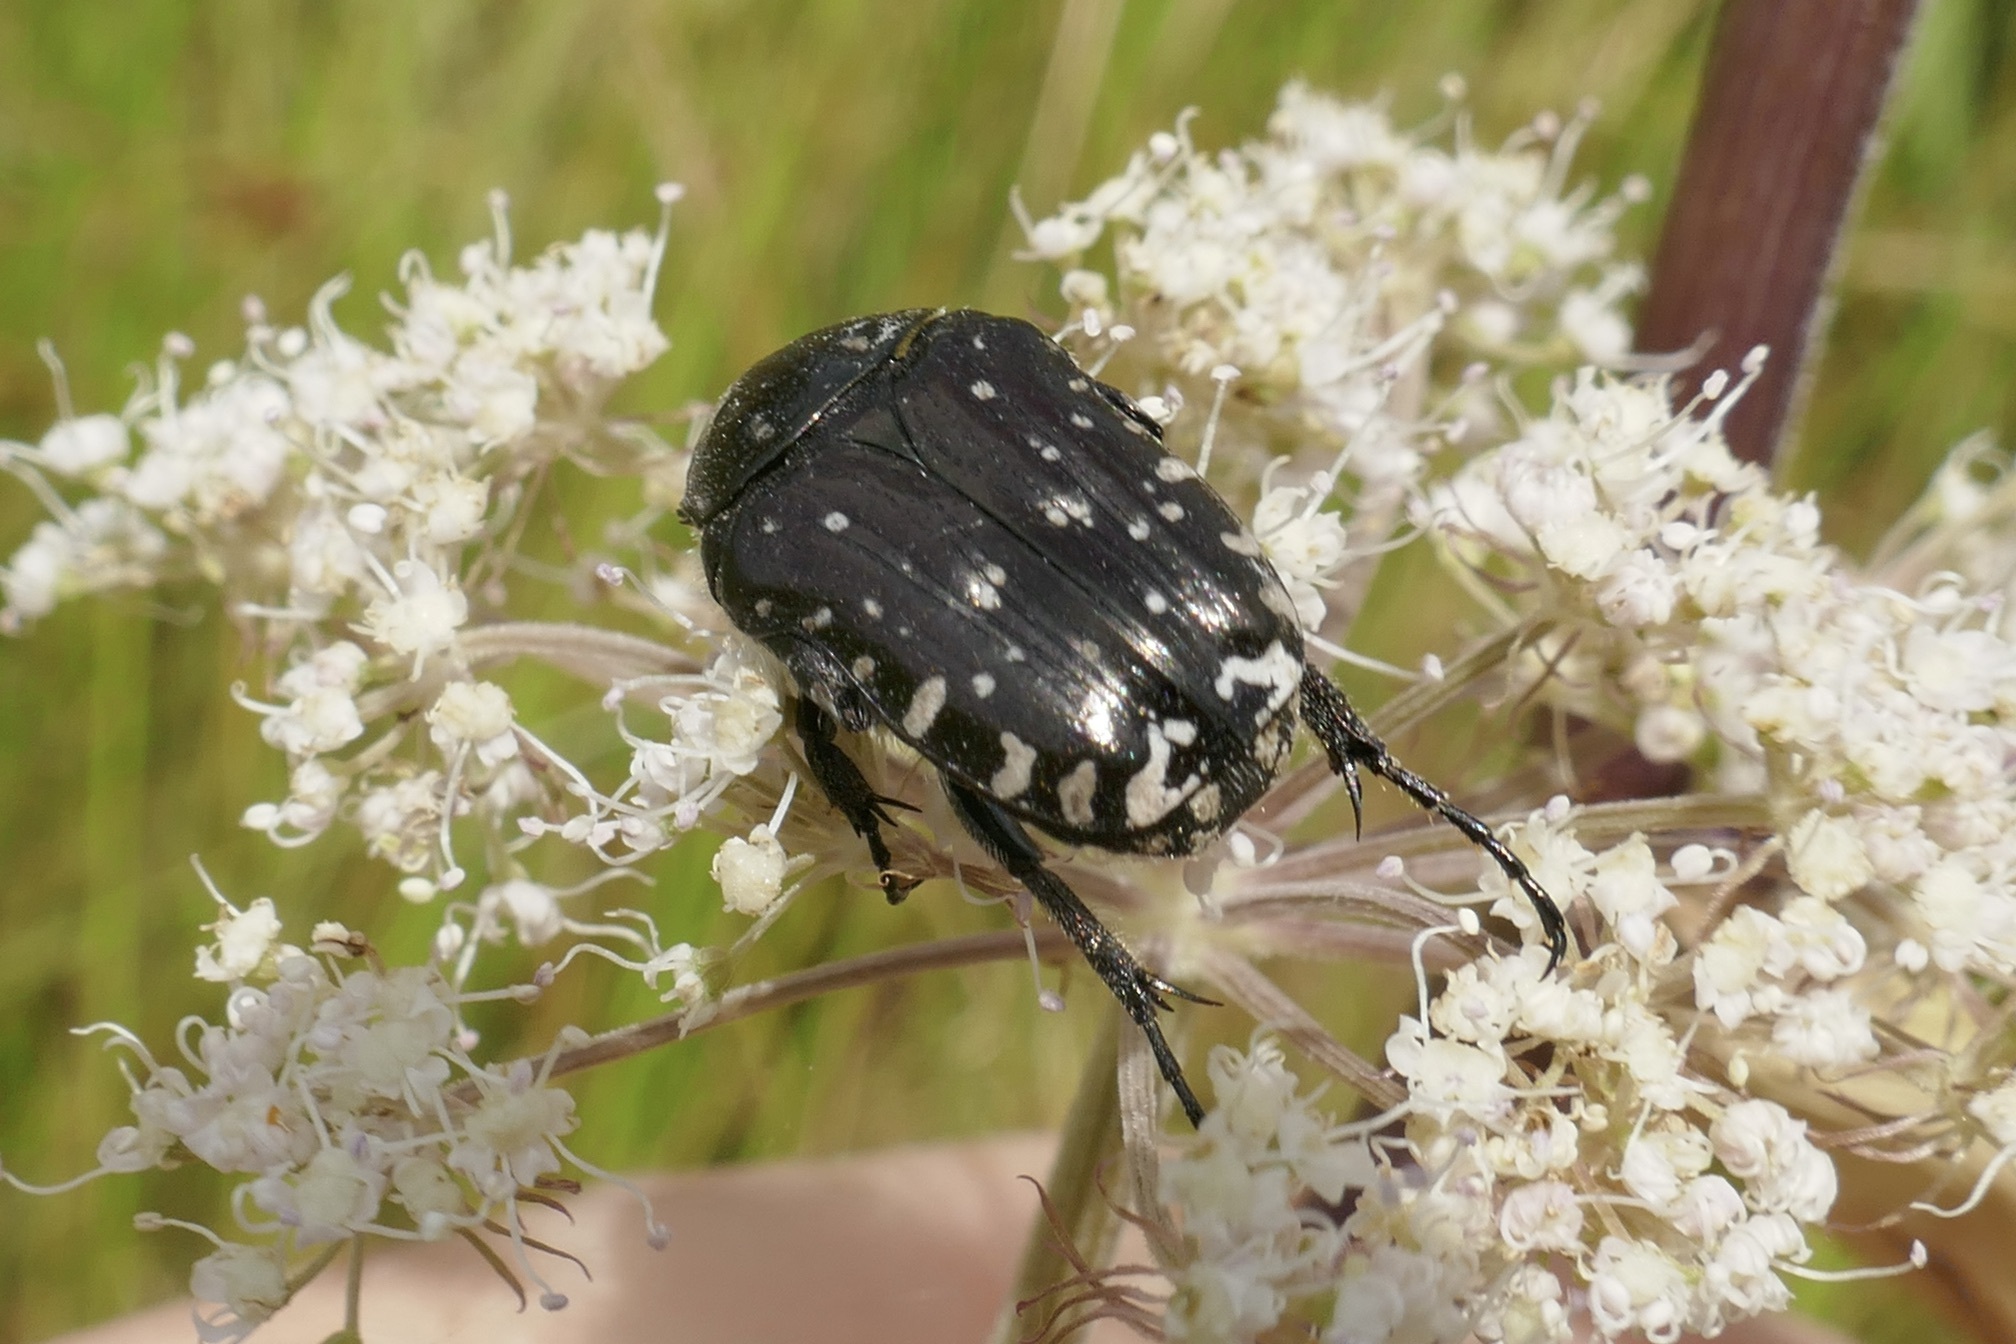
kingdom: Animalia
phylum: Arthropoda
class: Insecta
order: Coleoptera
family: Scarabaeidae
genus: Oxythyrea
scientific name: Oxythyrea funesta
